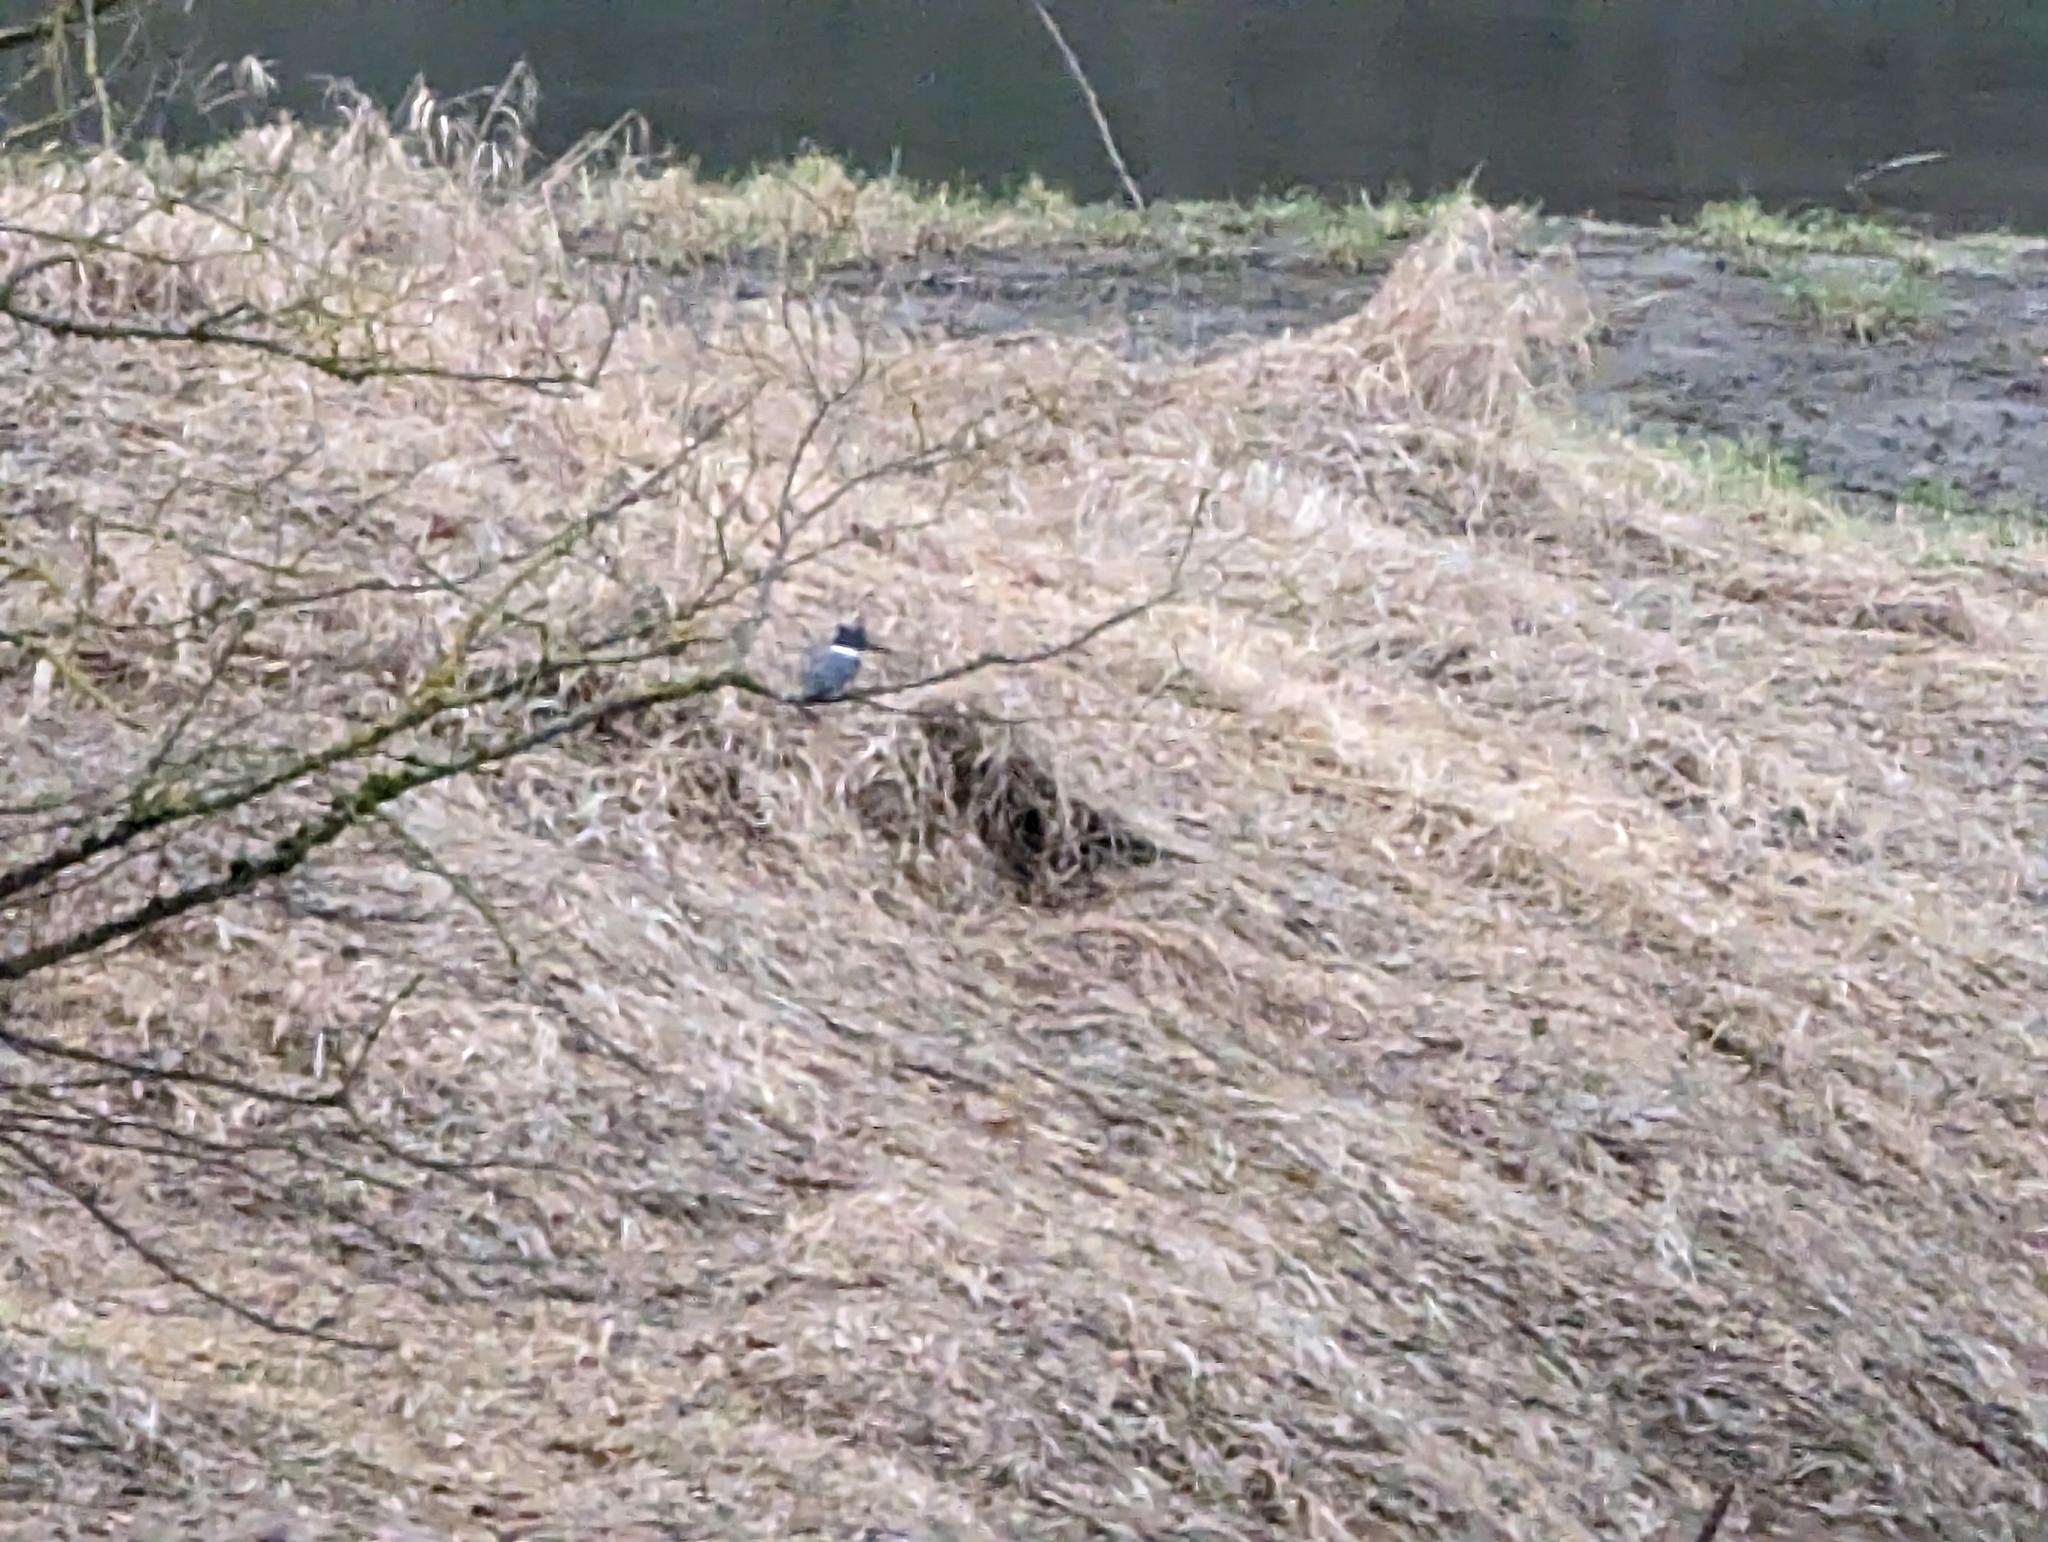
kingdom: Animalia
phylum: Chordata
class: Aves
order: Coraciiformes
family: Alcedinidae
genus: Megaceryle
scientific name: Megaceryle alcyon
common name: Belted kingfisher
